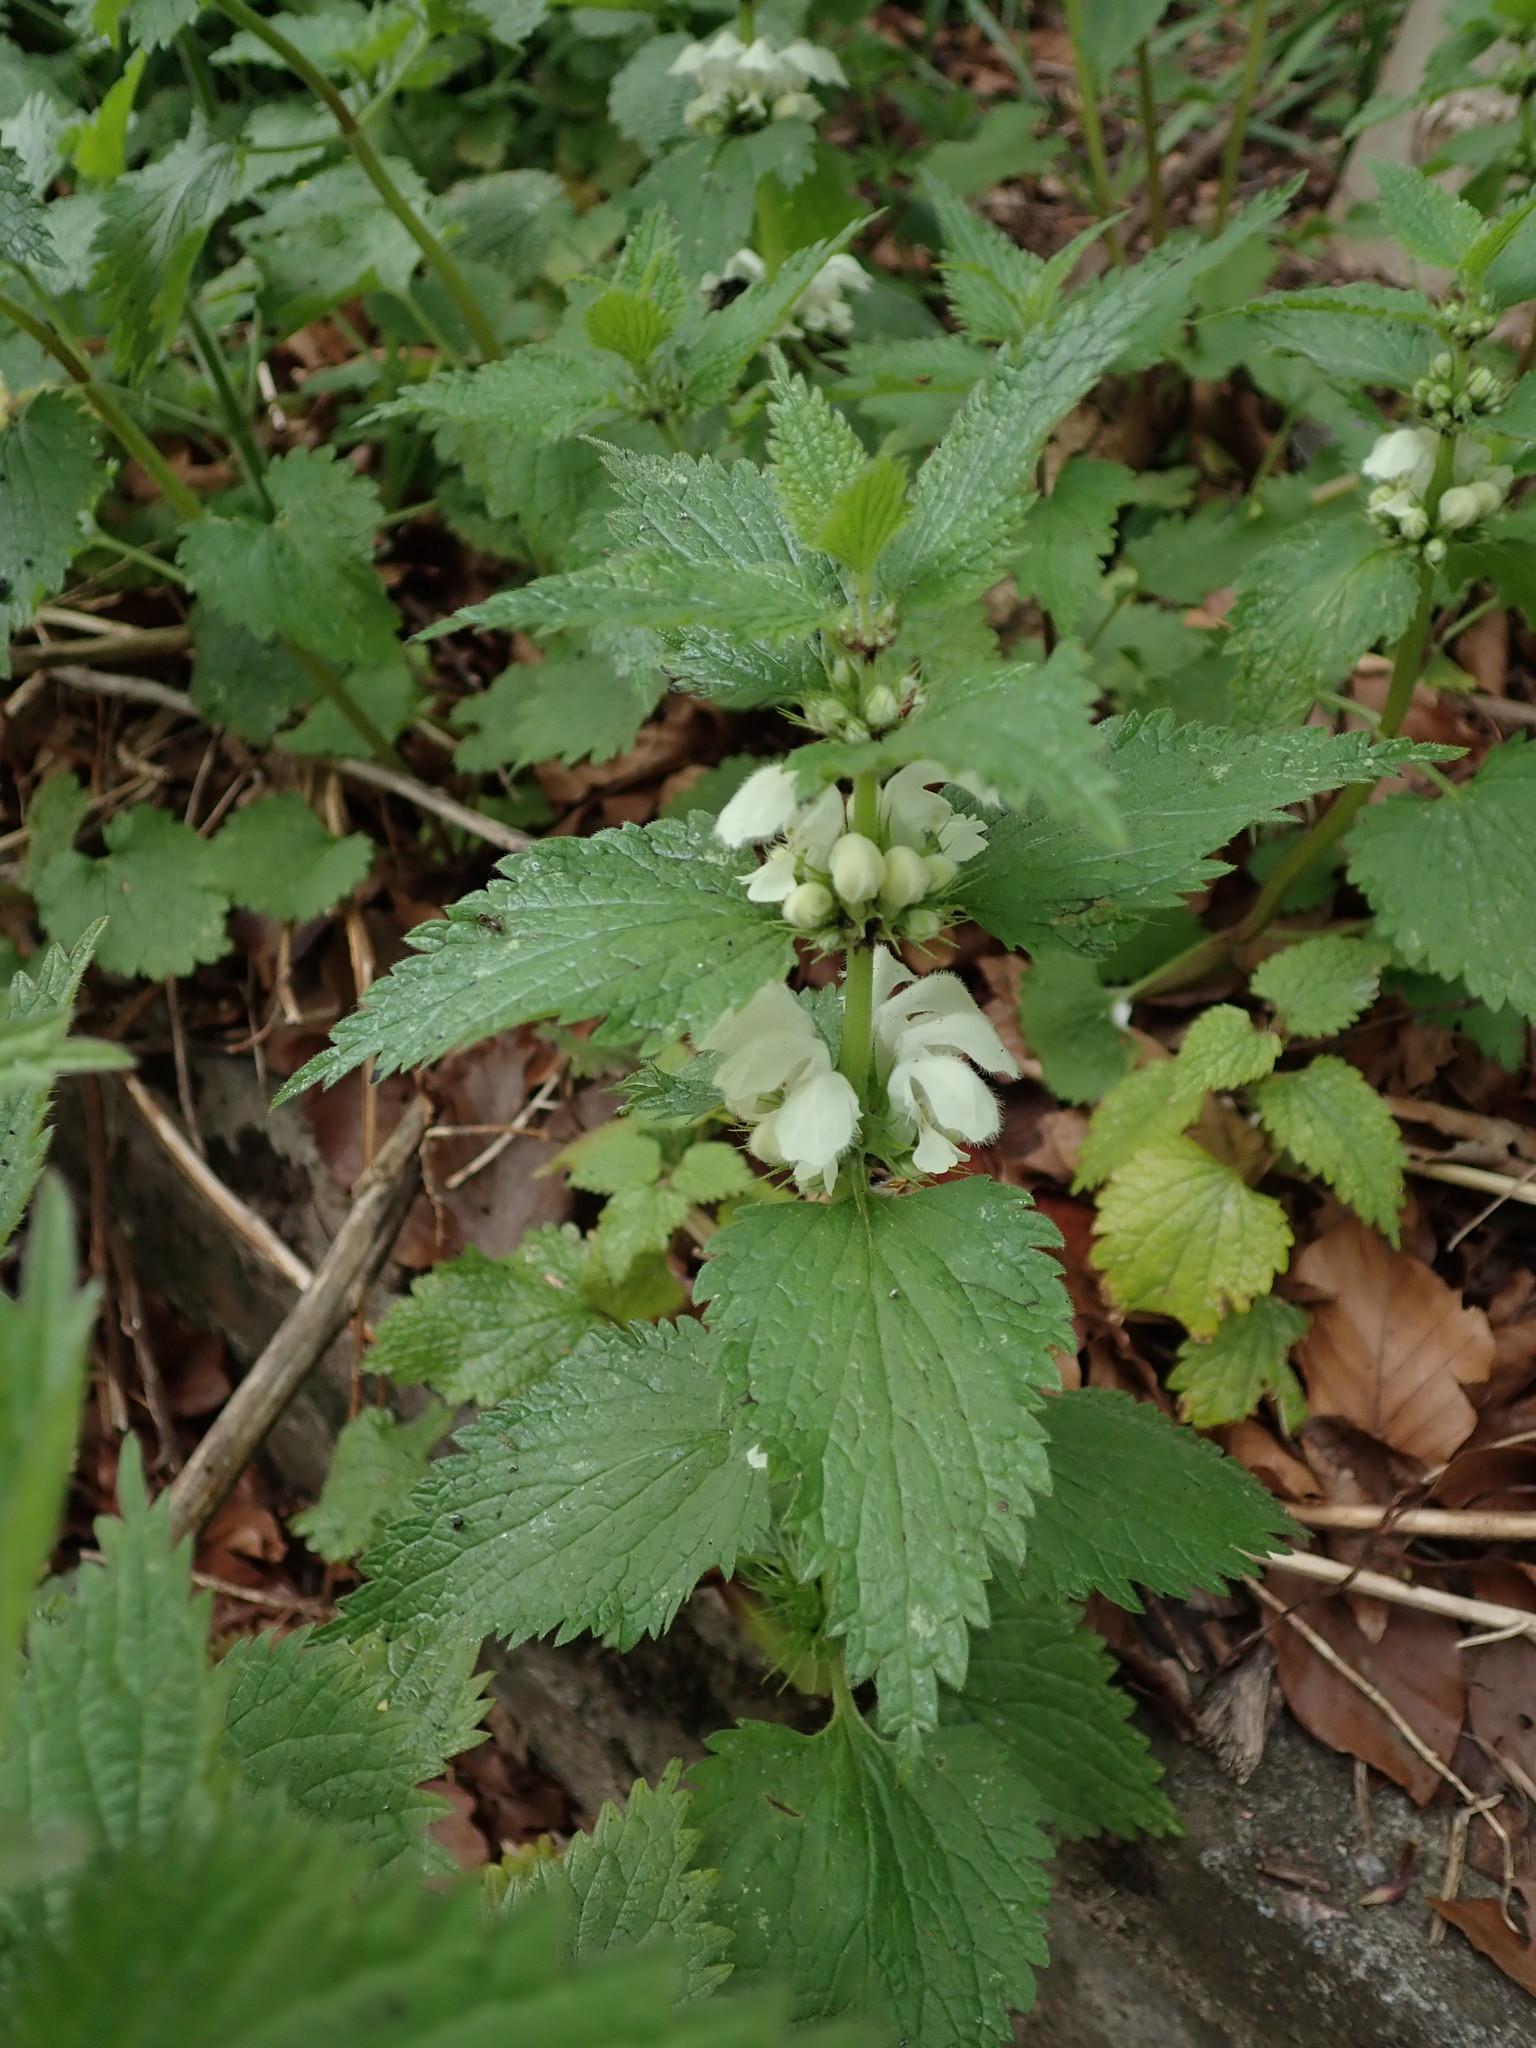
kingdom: Plantae
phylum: Tracheophyta
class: Magnoliopsida
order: Lamiales
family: Lamiaceae
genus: Lamium
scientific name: Lamium album
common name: White dead-nettle
